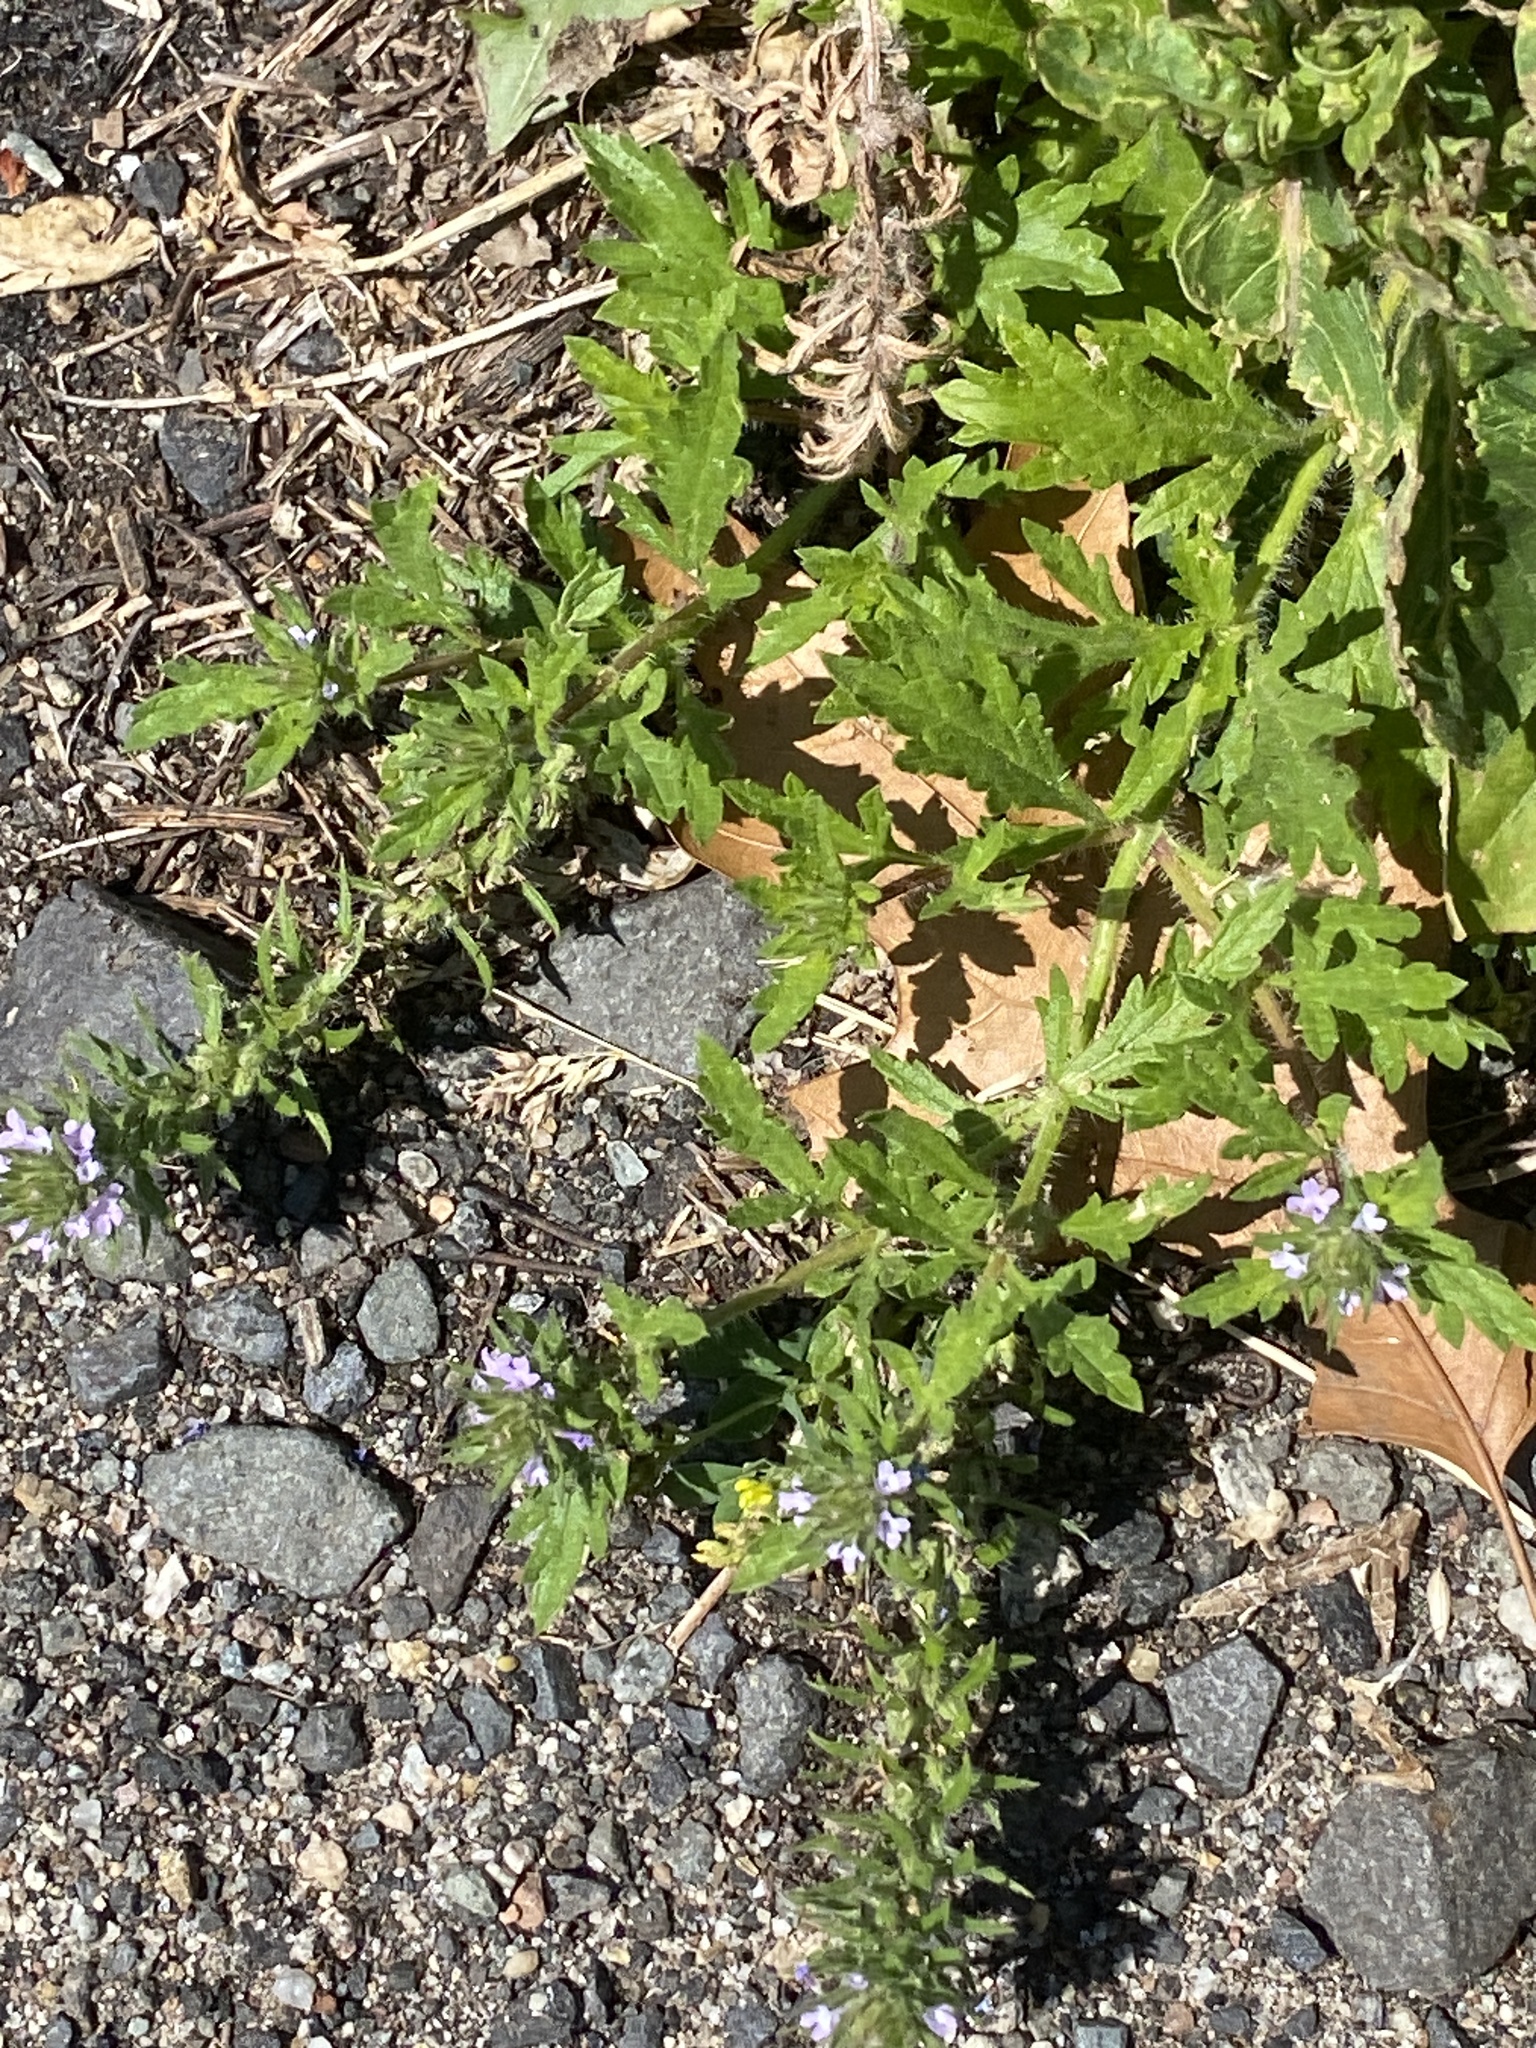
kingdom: Plantae
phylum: Tracheophyta
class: Magnoliopsida
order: Lamiales
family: Verbenaceae
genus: Verbena
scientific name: Verbena bracteata
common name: Bracted vervain
